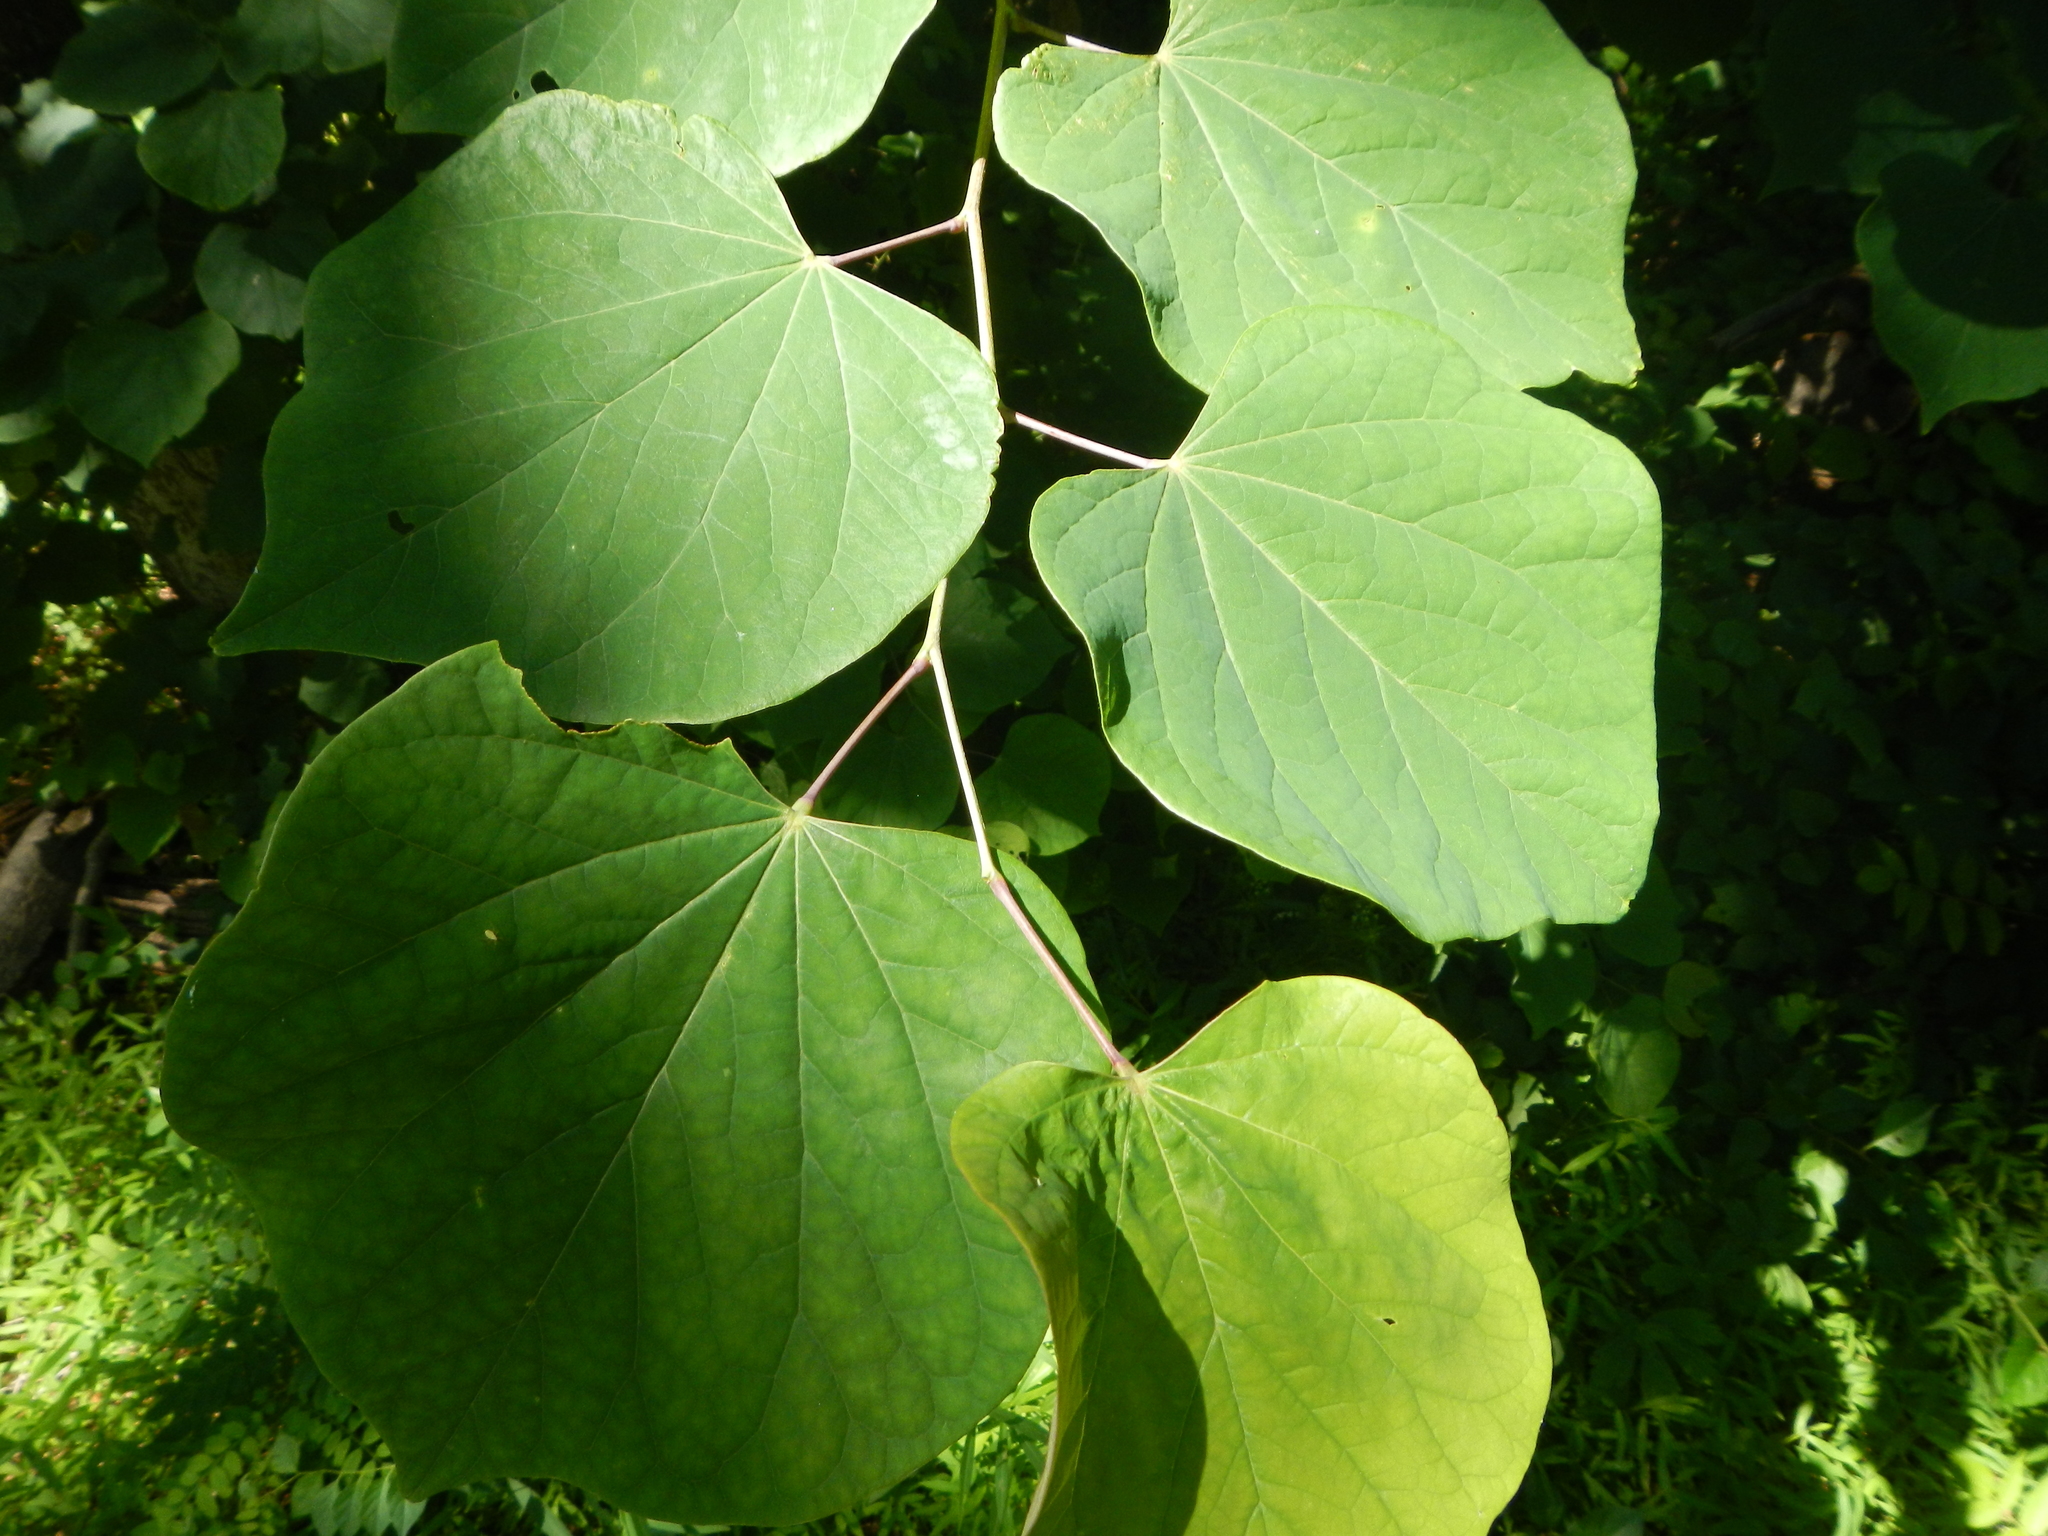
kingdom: Plantae
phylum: Tracheophyta
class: Magnoliopsida
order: Fabales
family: Fabaceae
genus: Cercis
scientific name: Cercis canadensis
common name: Eastern redbud
